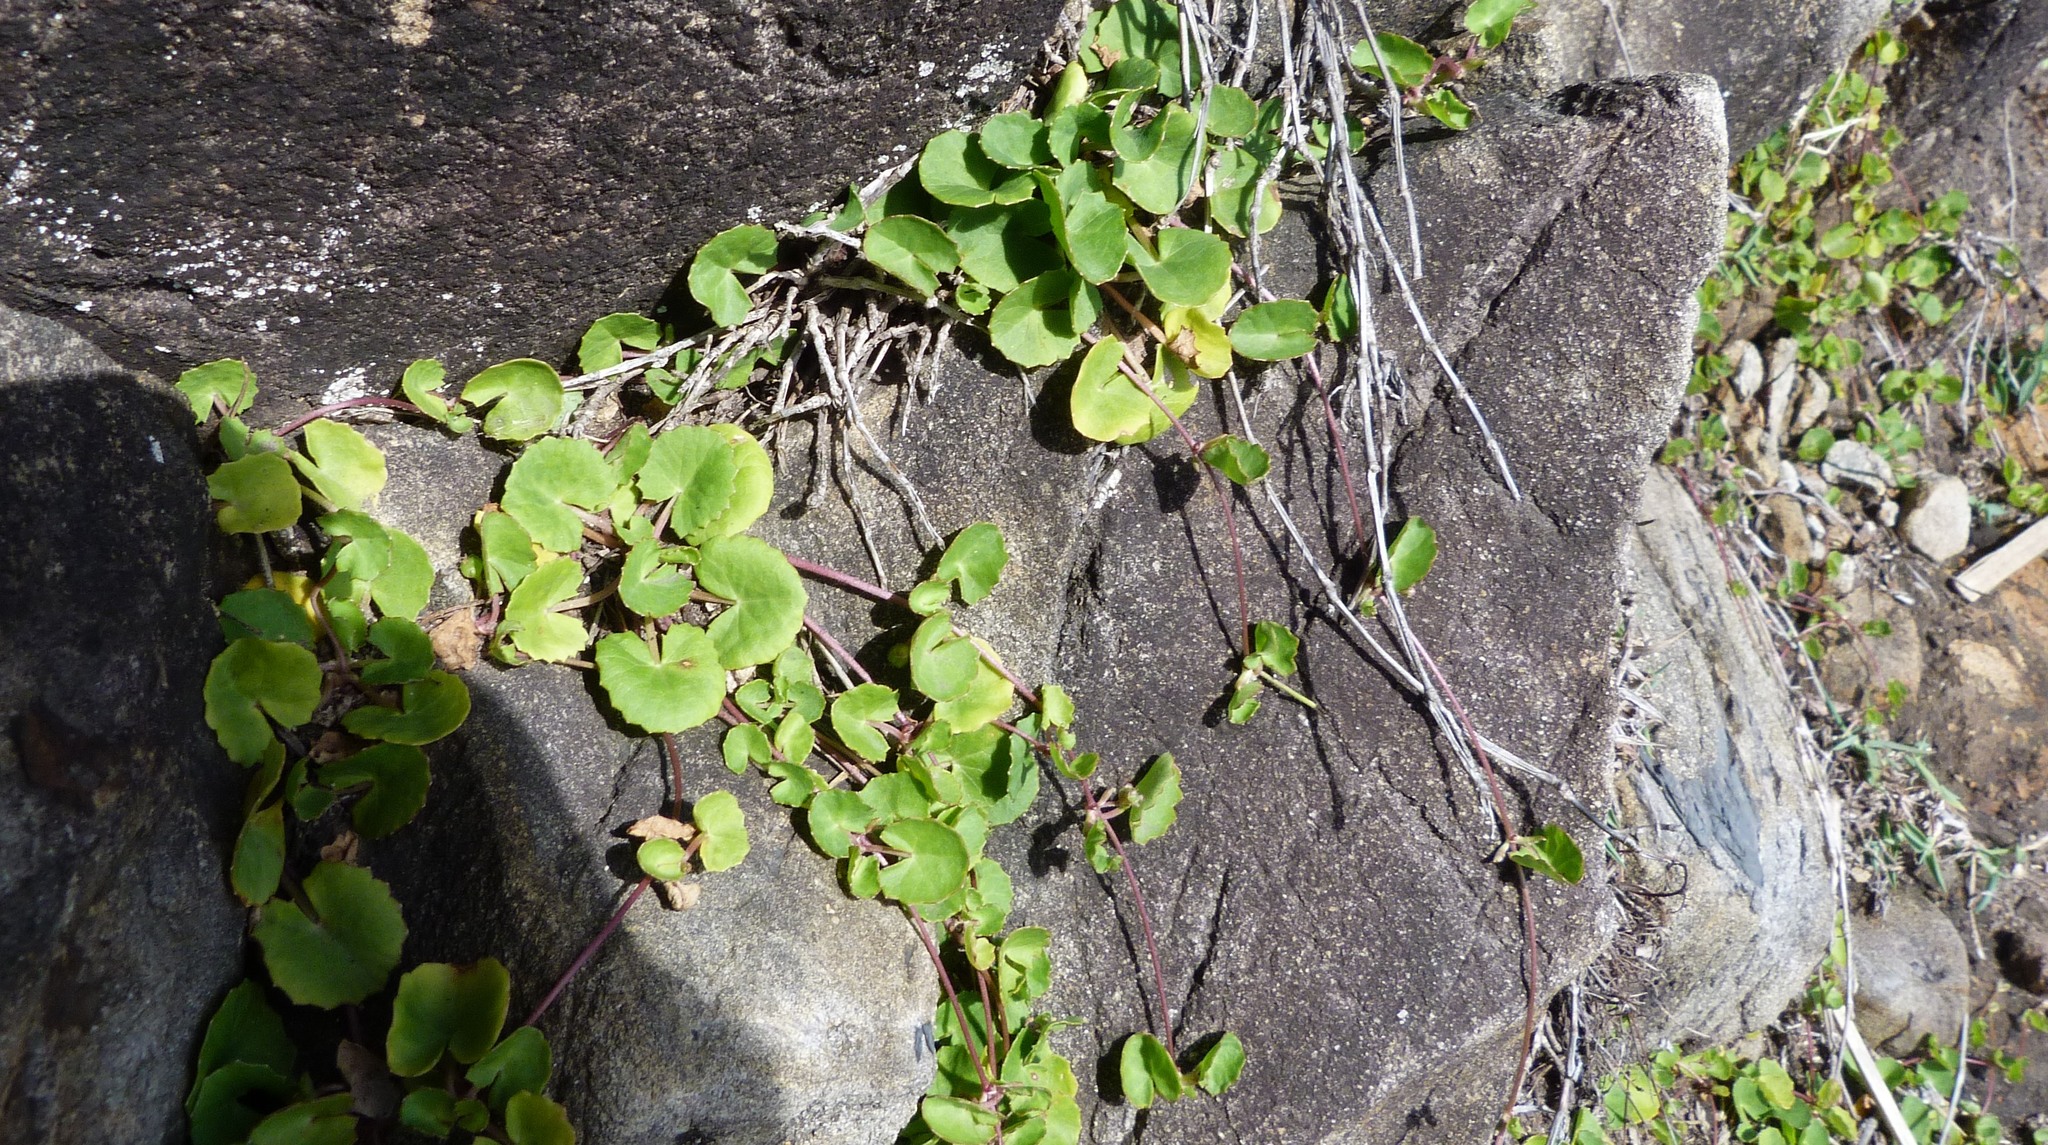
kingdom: Plantae
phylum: Tracheophyta
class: Magnoliopsida
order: Apiales
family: Apiaceae
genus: Centella
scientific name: Centella asiatica
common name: Spadeleaf
